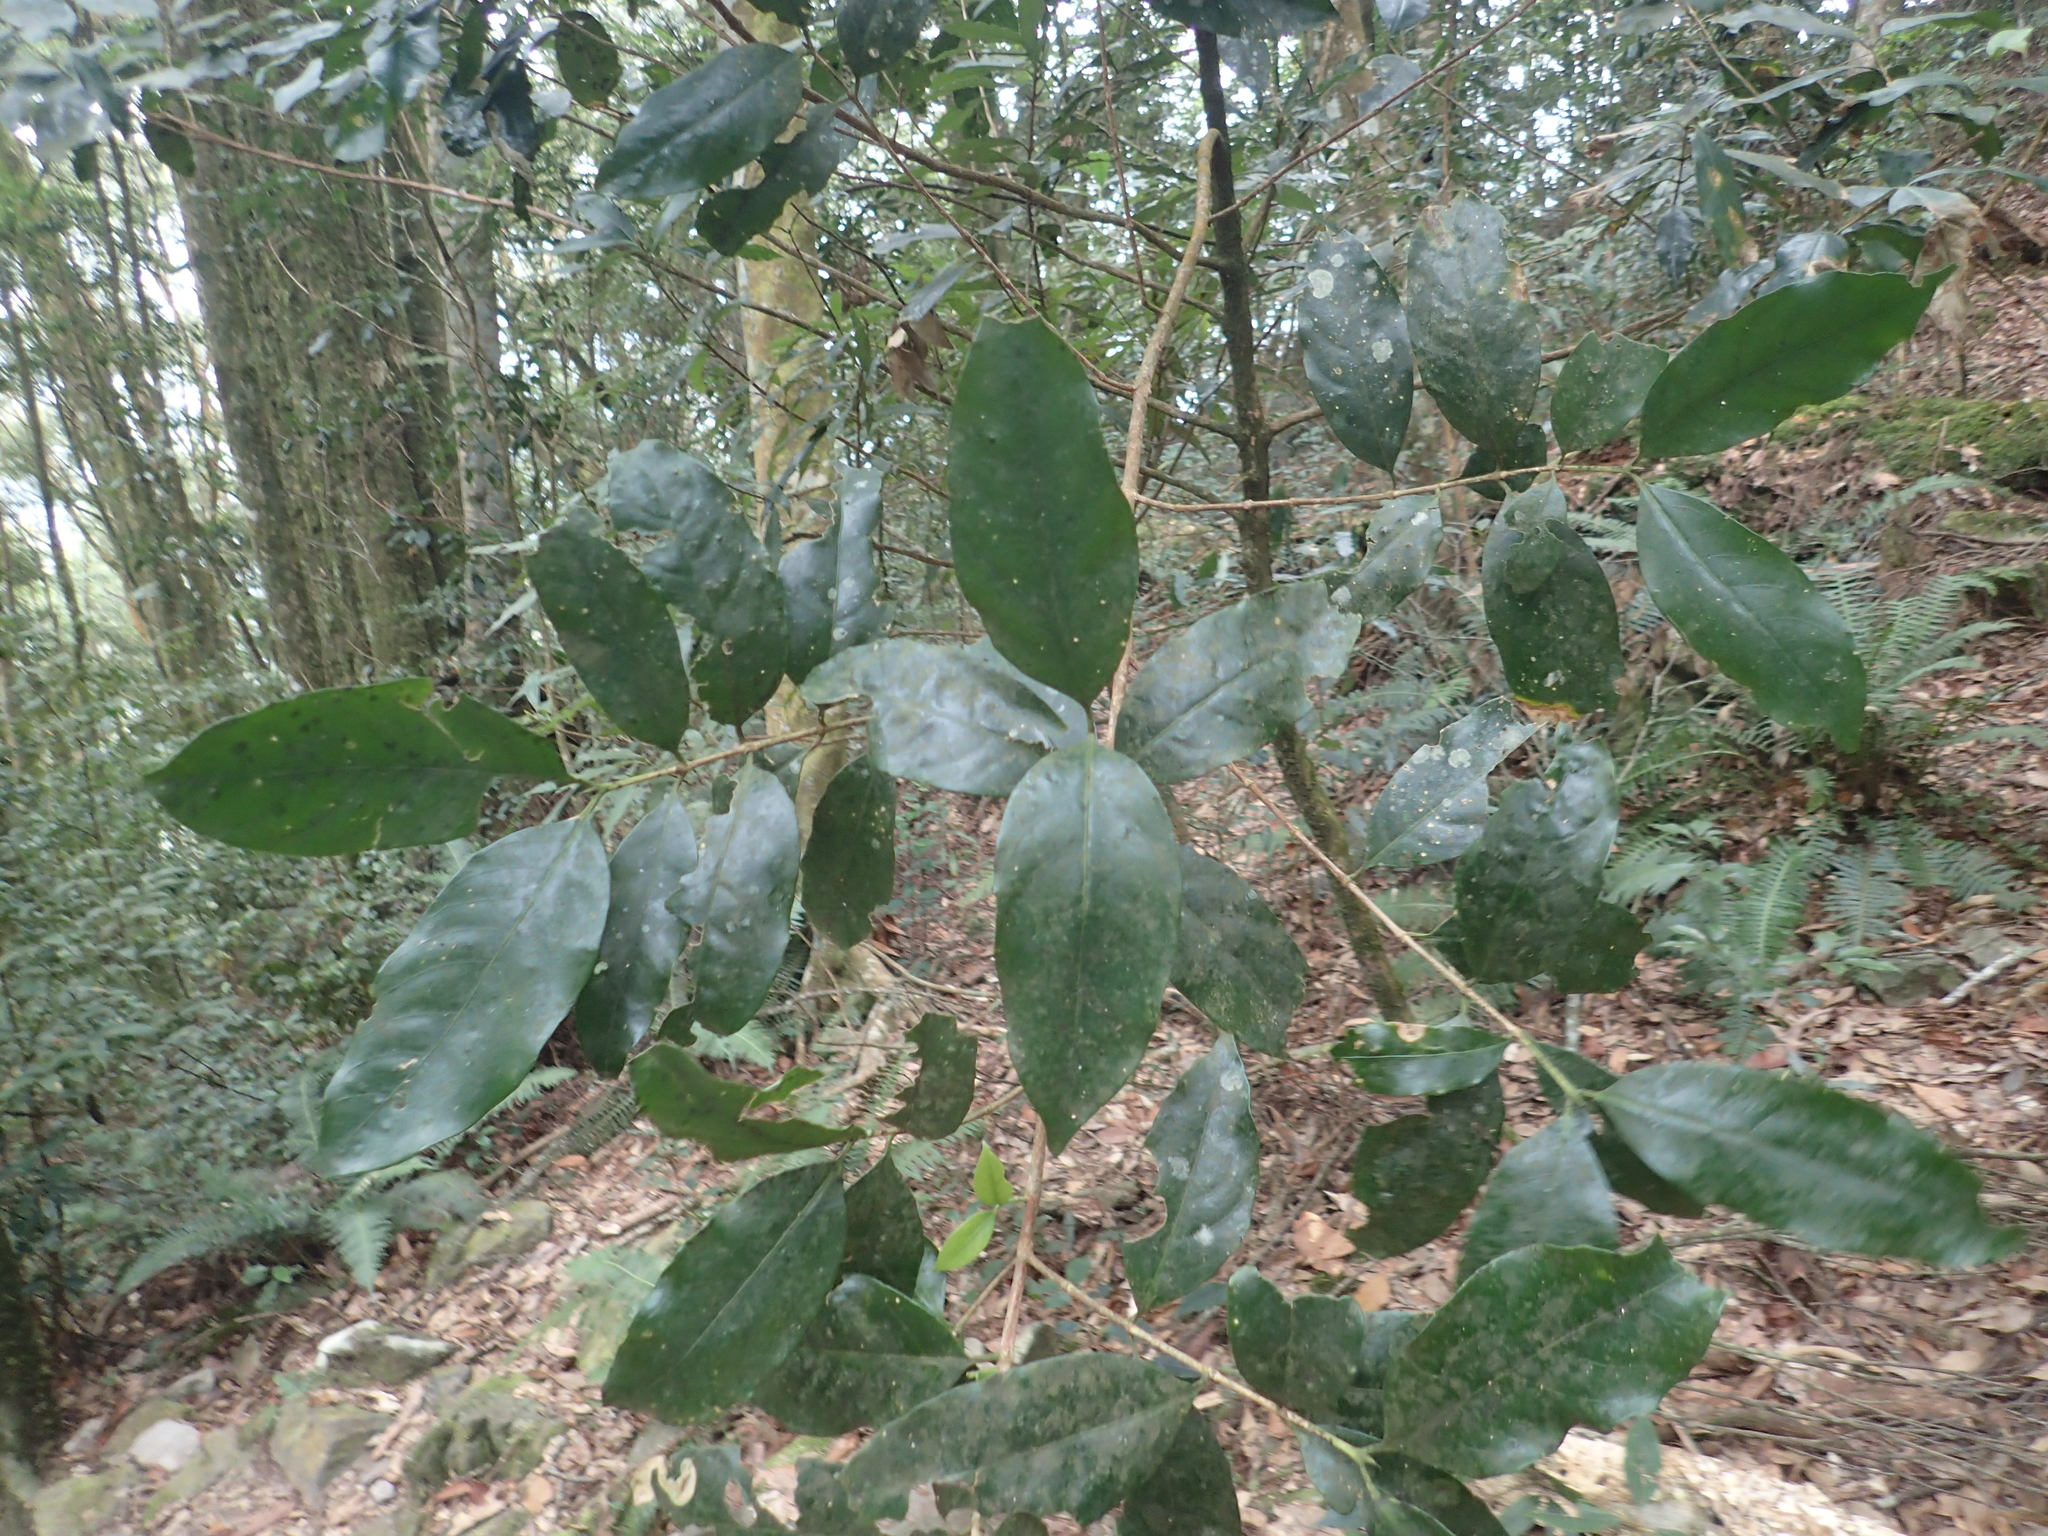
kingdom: Plantae
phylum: Tracheophyta
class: Magnoliopsida
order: Gentianales
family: Rubiaceae
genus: Diplospora
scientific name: Diplospora dubia
